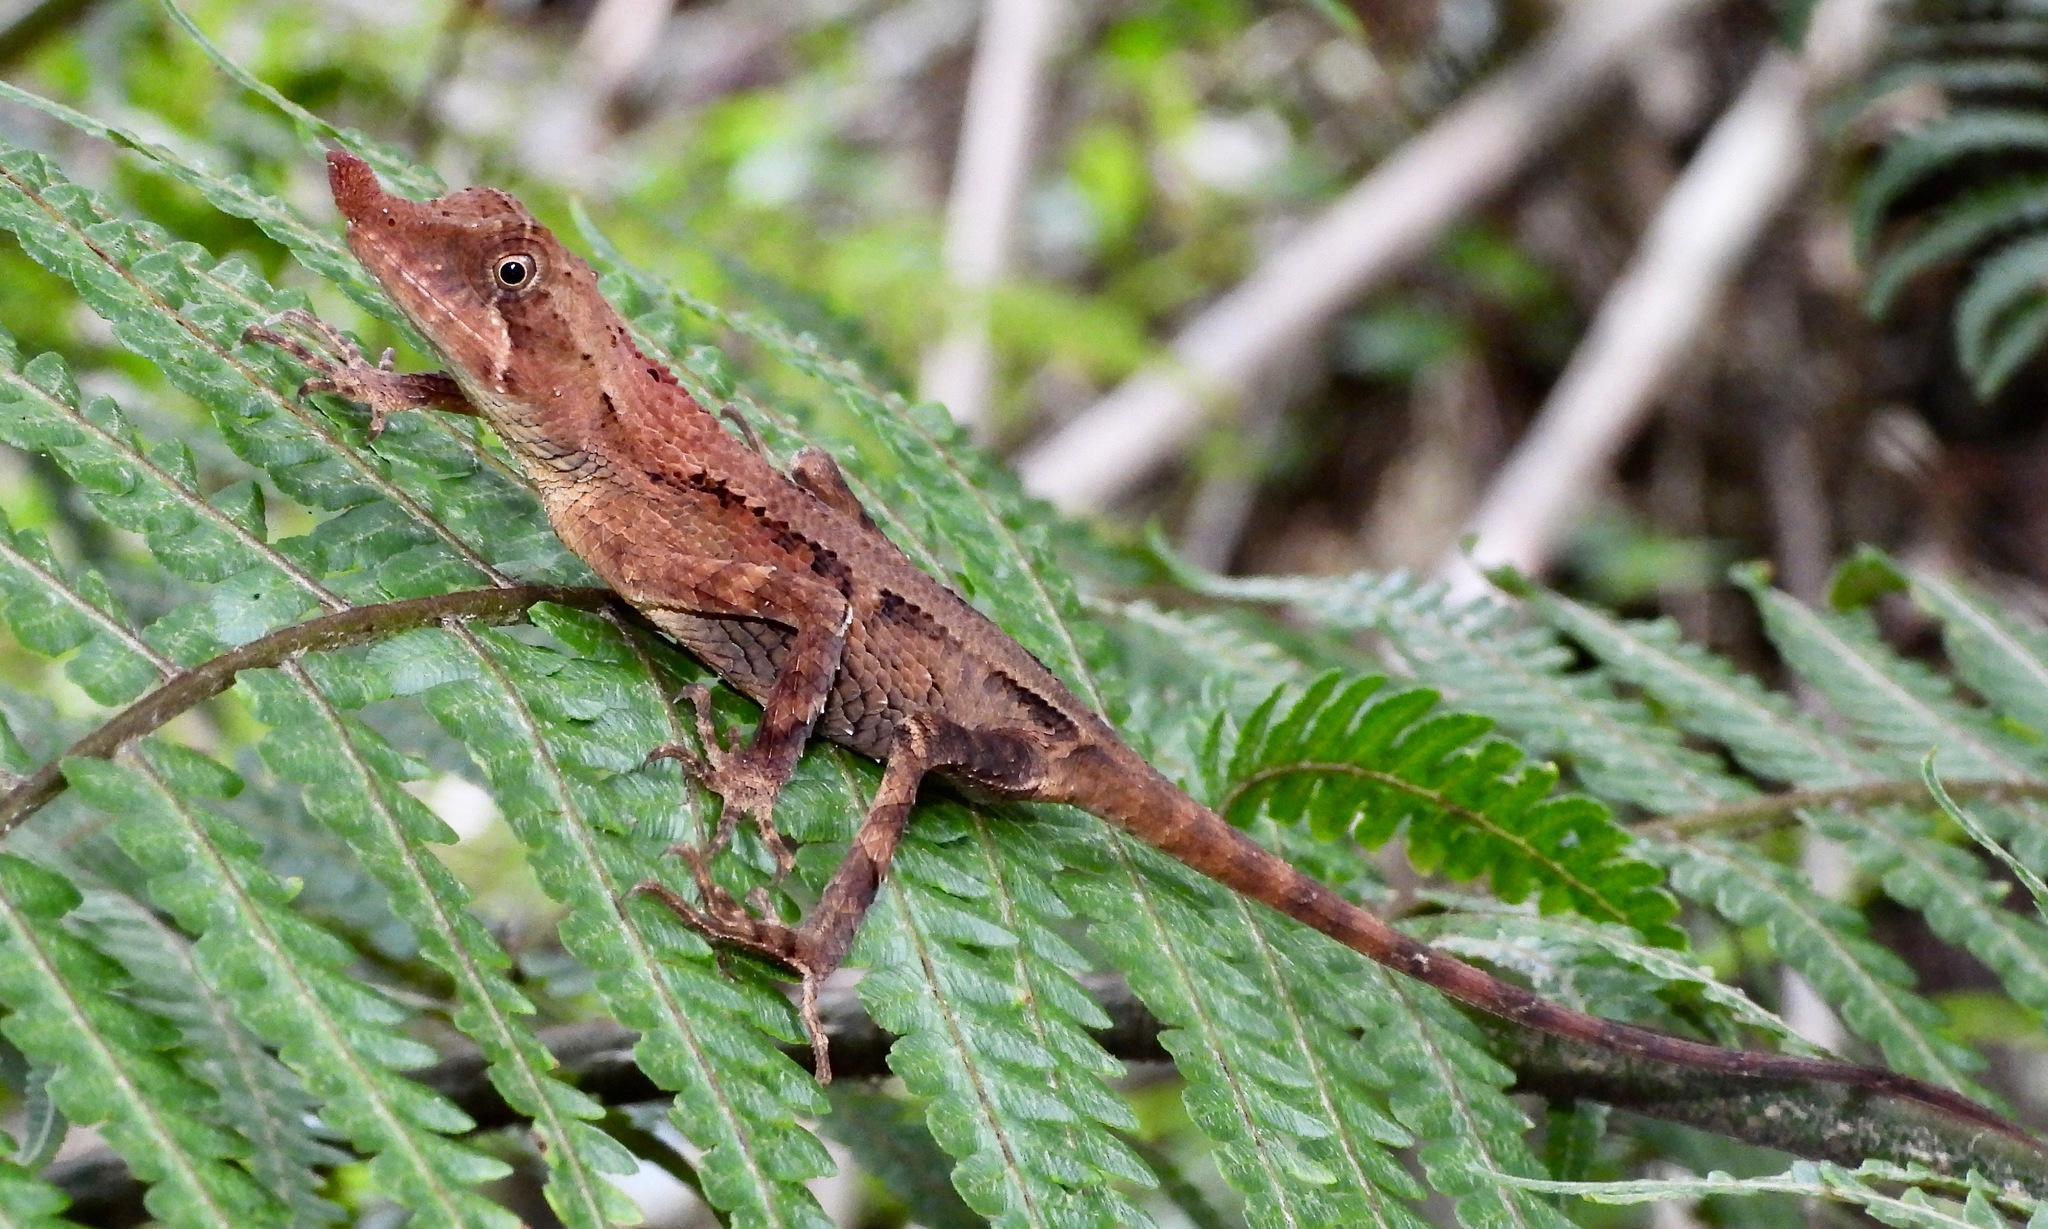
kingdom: Animalia
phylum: Chordata
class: Squamata
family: Agamidae
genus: Ceratophora
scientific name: Ceratophora tennentii
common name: Rhinoceros agama
